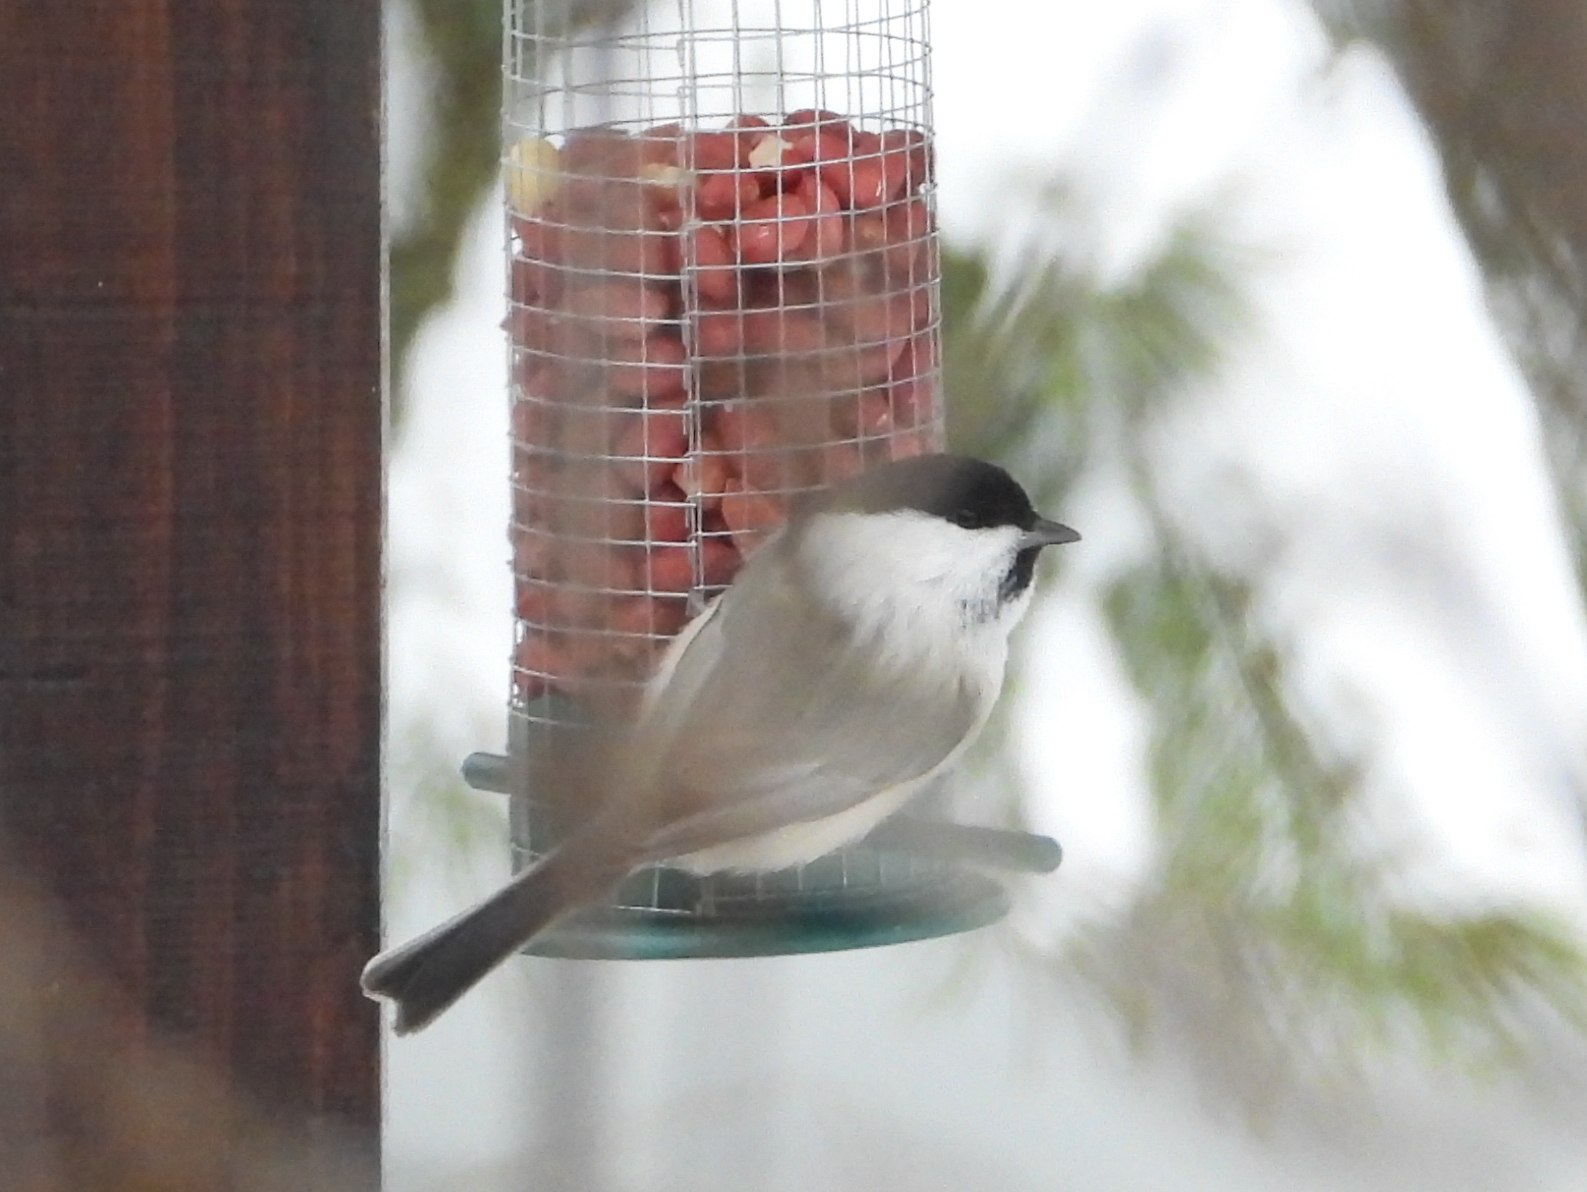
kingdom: Animalia
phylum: Chordata
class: Aves
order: Passeriformes
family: Paridae
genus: Poecile
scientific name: Poecile montanus
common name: Willow tit
